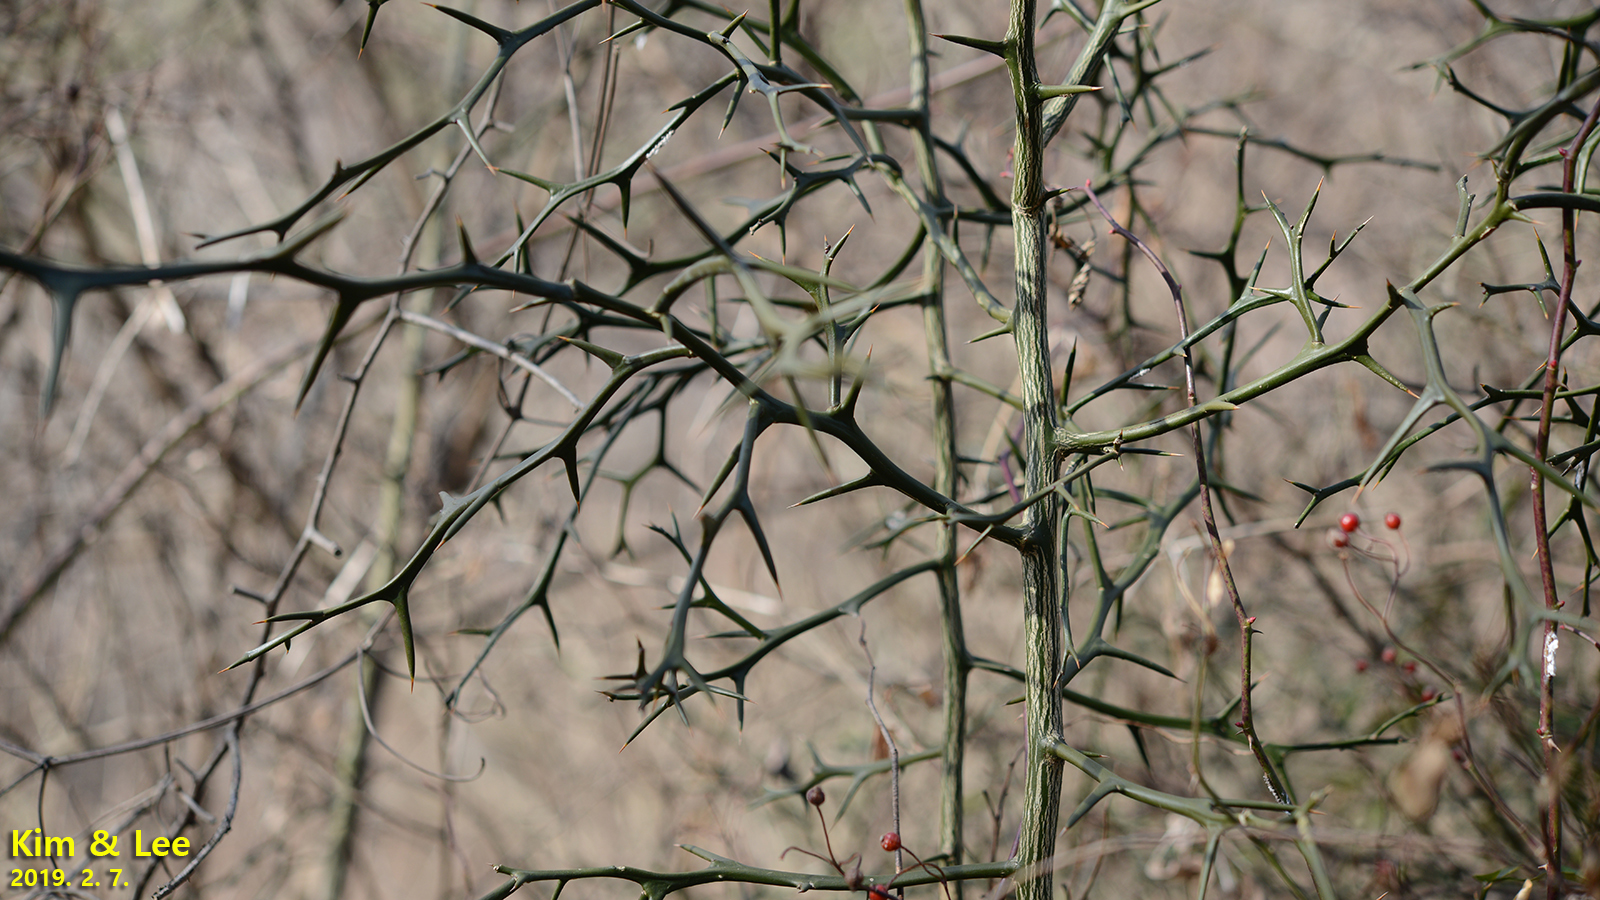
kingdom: Plantae
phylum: Tracheophyta
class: Magnoliopsida
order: Sapindales
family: Rutaceae
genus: Citrus
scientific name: Citrus trifoliata
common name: Japanese bitter-orange
